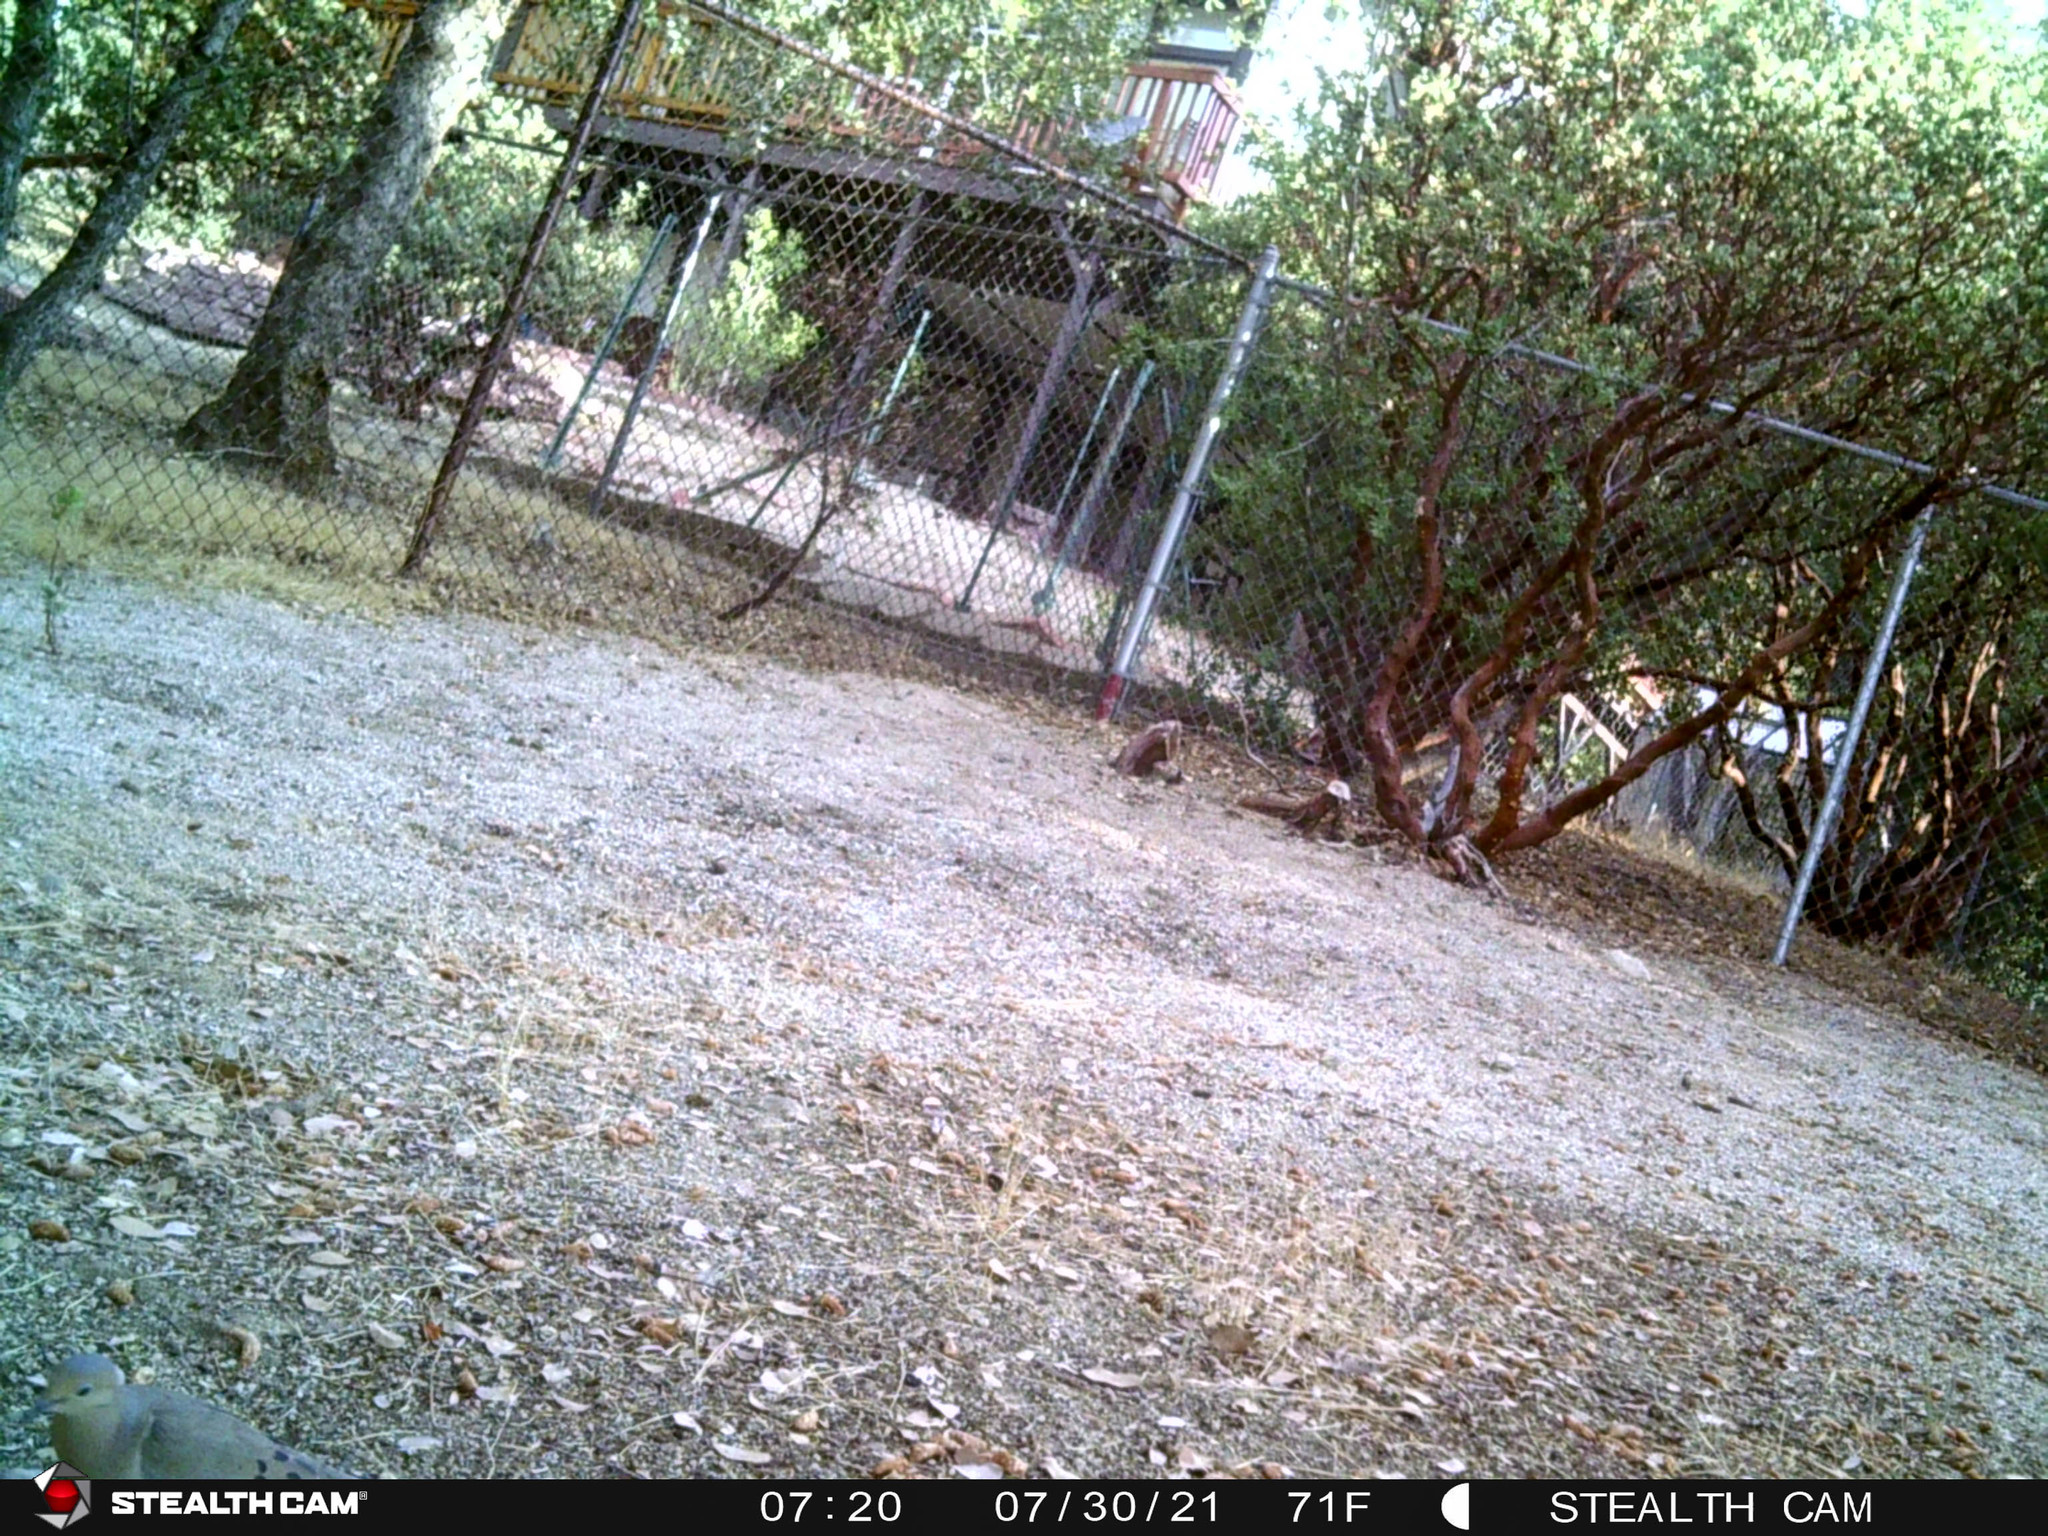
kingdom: Animalia
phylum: Chordata
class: Aves
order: Columbiformes
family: Columbidae
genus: Zenaida
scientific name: Zenaida macroura
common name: Mourning dove
